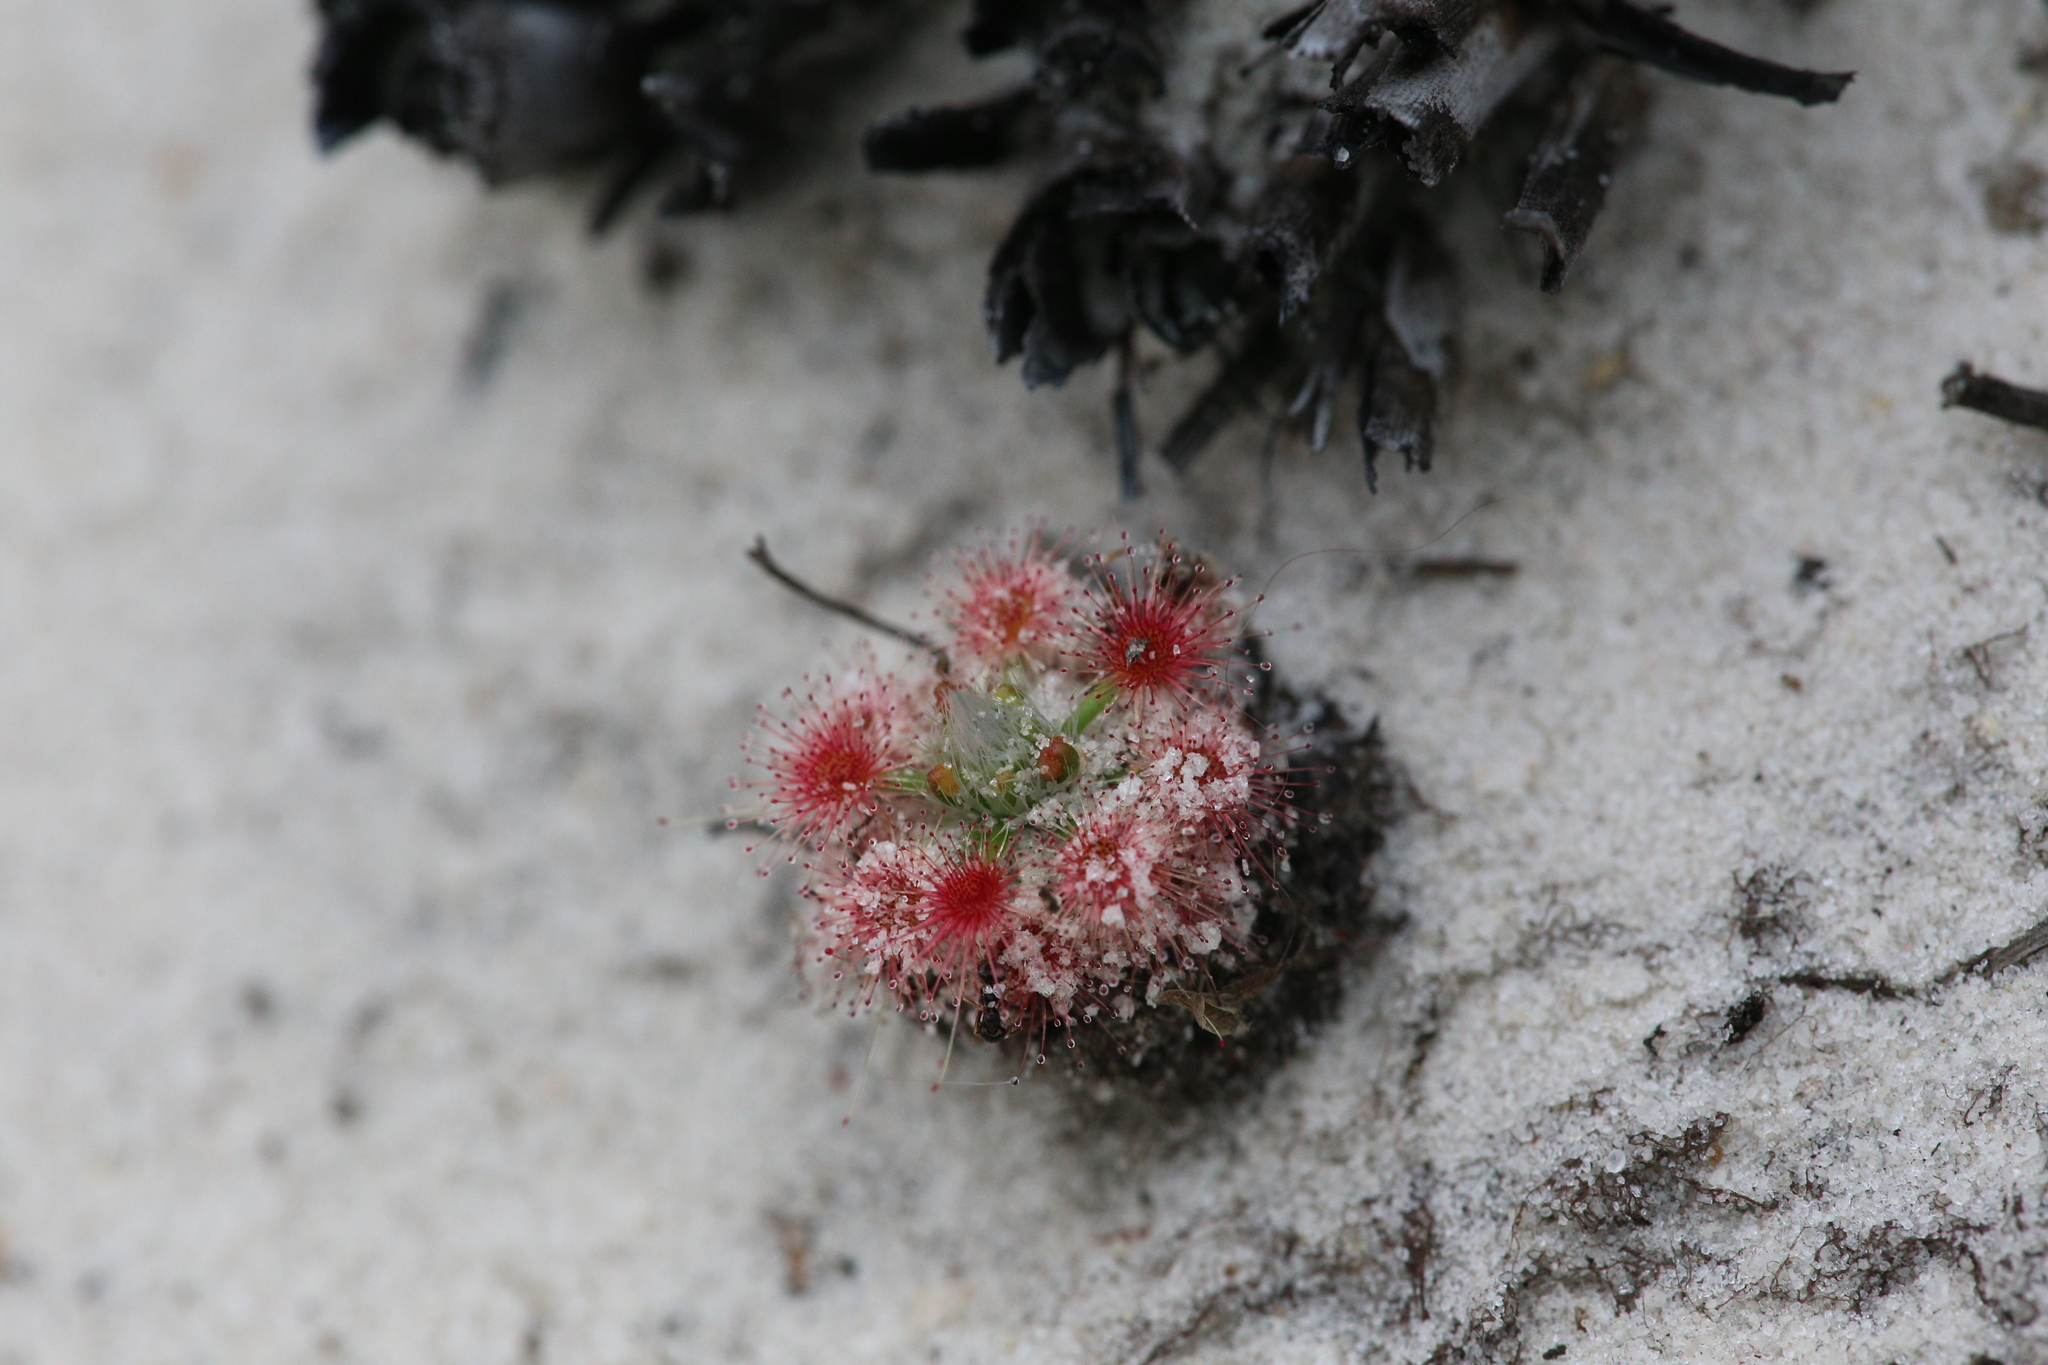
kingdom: Plantae
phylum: Tracheophyta
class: Magnoliopsida
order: Caryophyllales
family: Droseraceae
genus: Drosera
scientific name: Drosera paleacea
